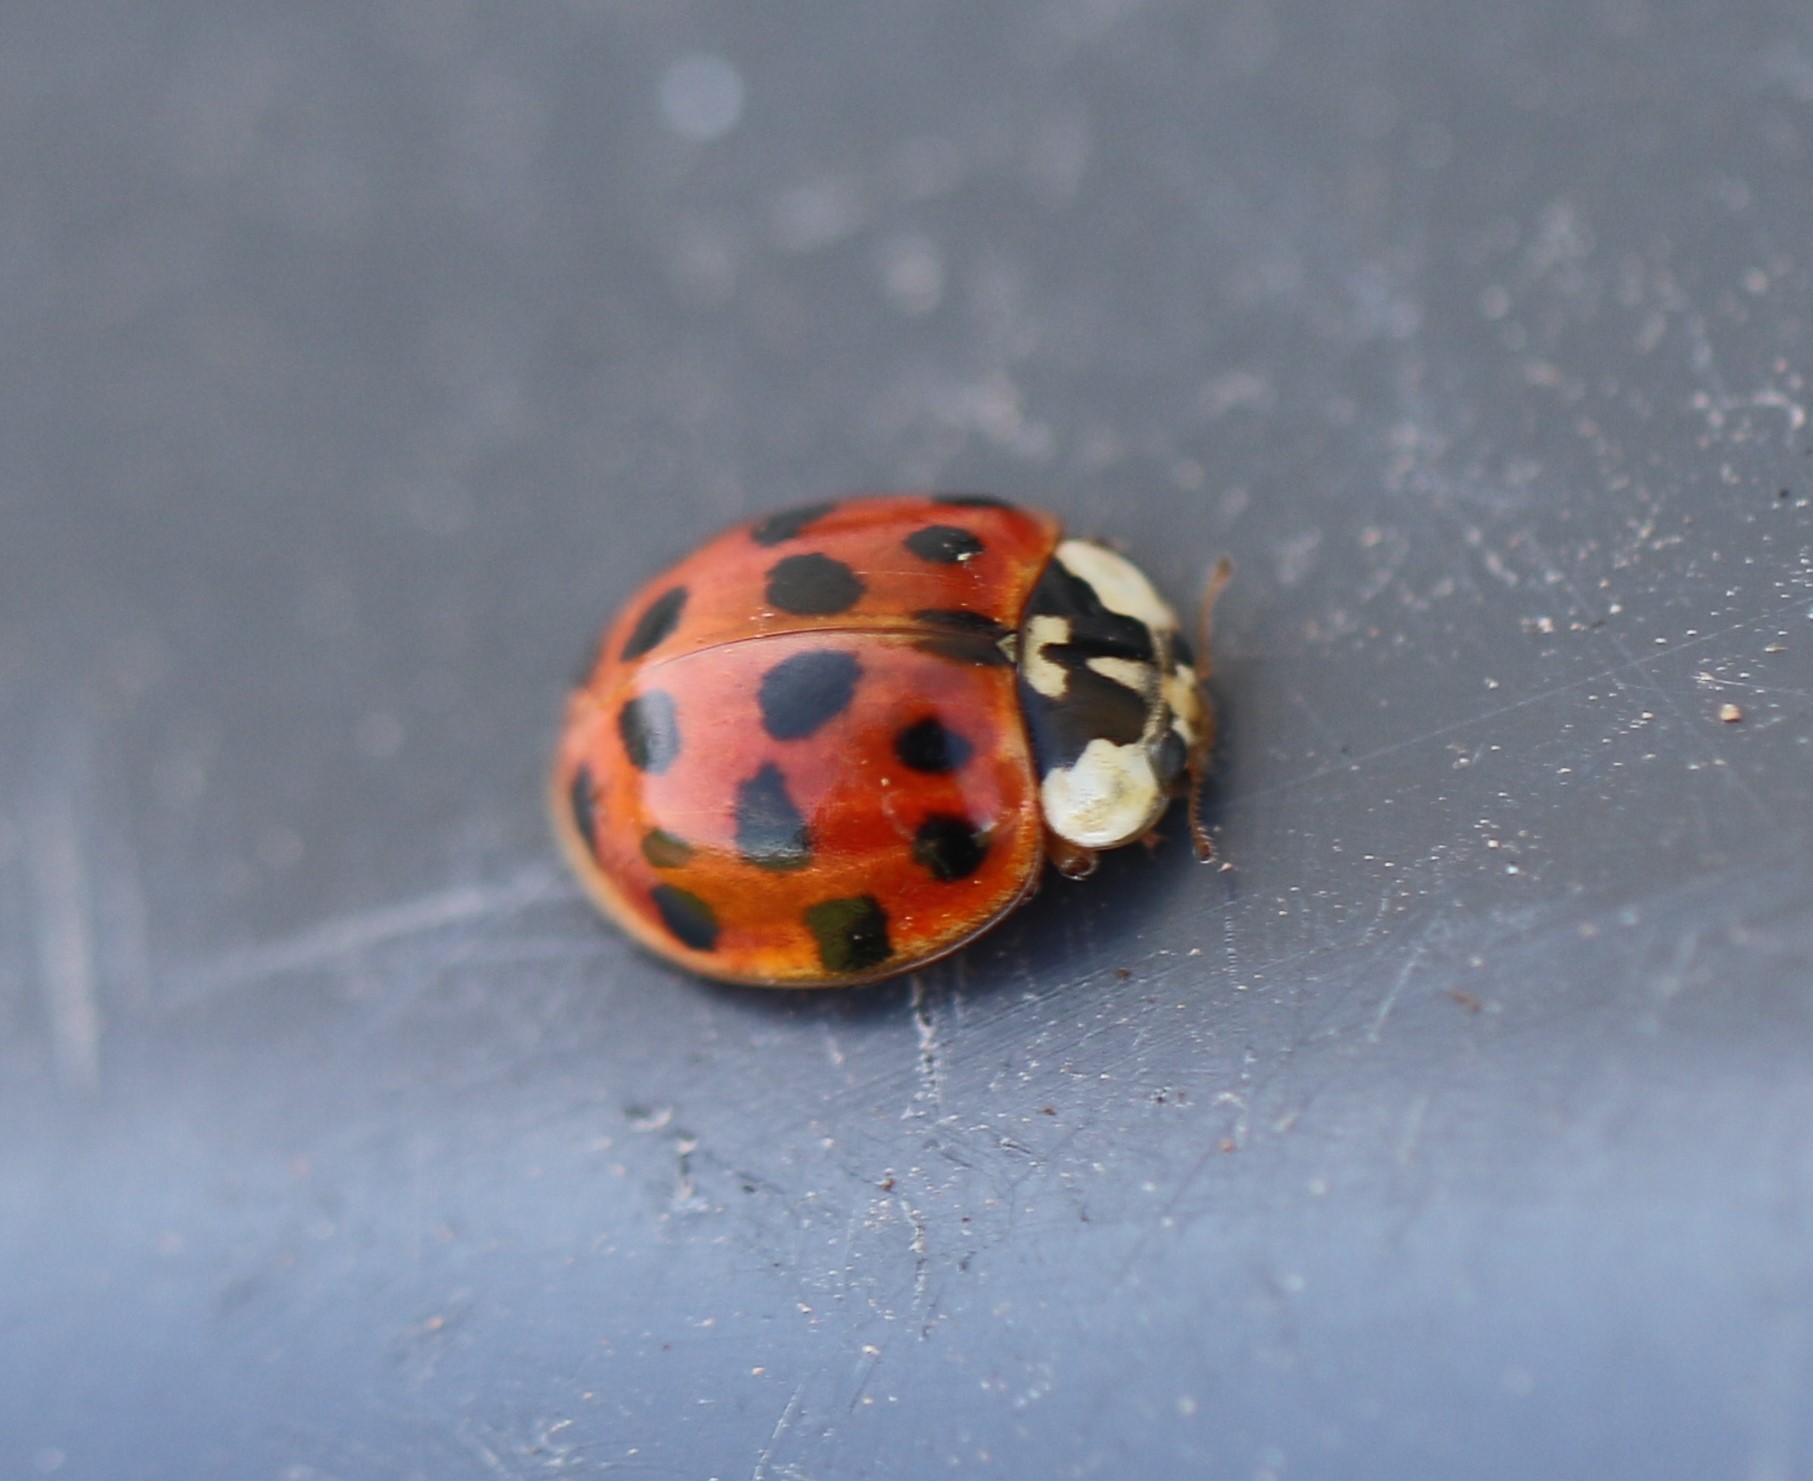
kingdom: Animalia
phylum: Arthropoda
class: Insecta
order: Coleoptera
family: Coccinellidae
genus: Harmonia
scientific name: Harmonia axyridis
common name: Harlequin ladybird
